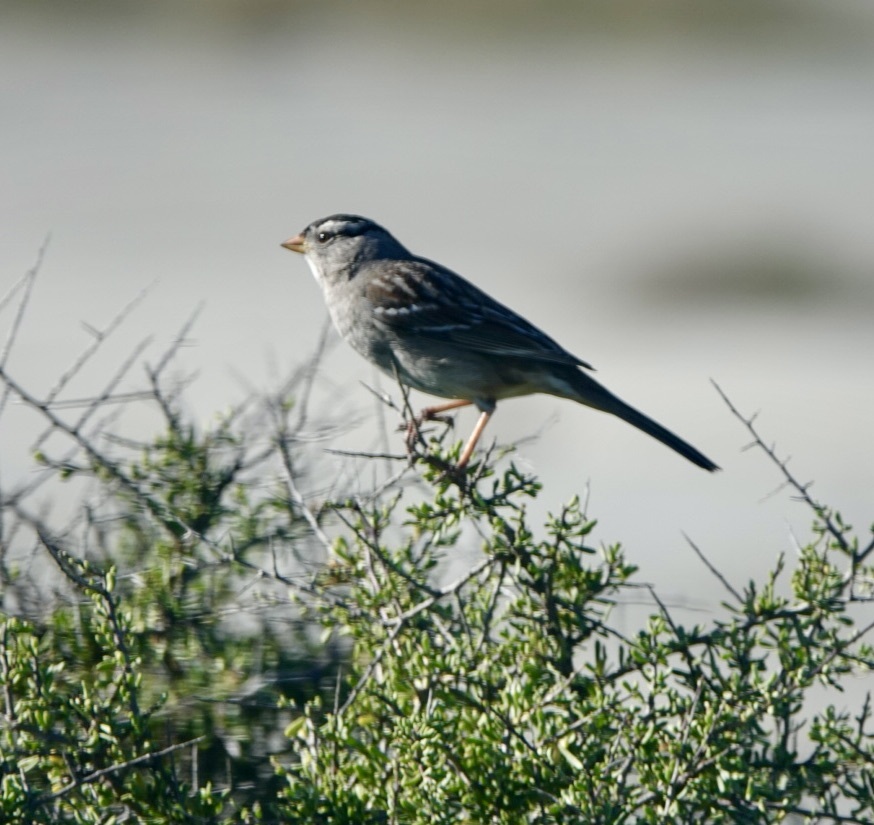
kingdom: Animalia
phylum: Chordata
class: Aves
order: Passeriformes
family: Passerellidae
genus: Zonotrichia
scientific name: Zonotrichia leucophrys
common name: White-crowned sparrow
